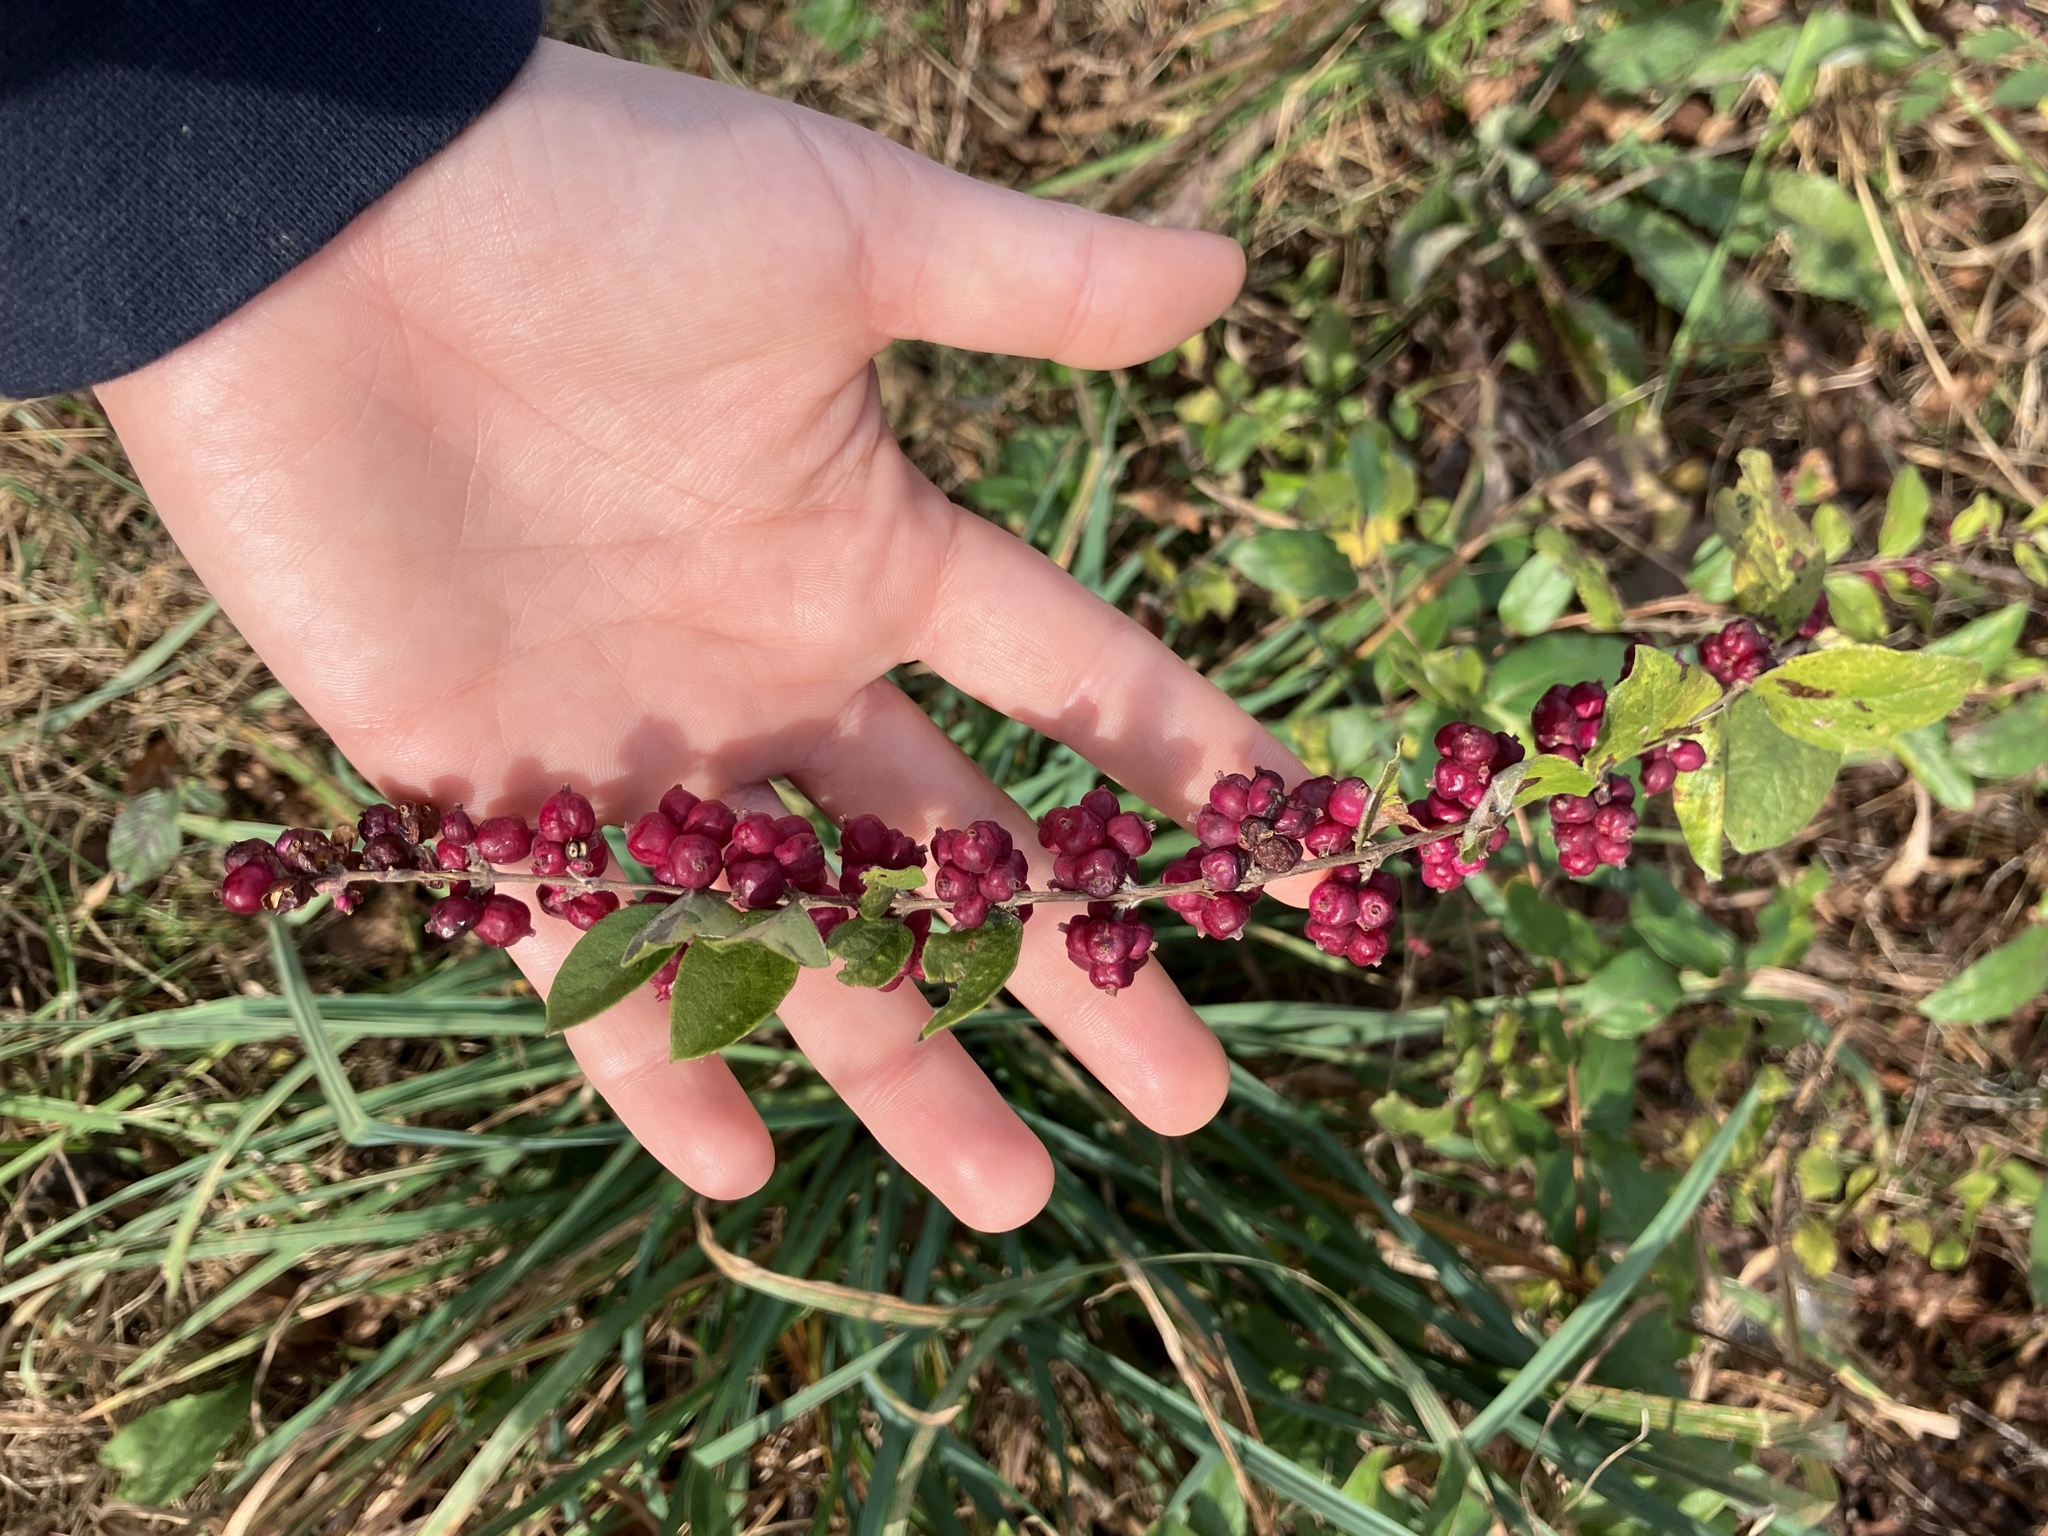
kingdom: Plantae
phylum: Tracheophyta
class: Magnoliopsida
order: Dipsacales
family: Caprifoliaceae
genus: Symphoricarpos
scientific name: Symphoricarpos orbiculatus
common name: Coralberry
